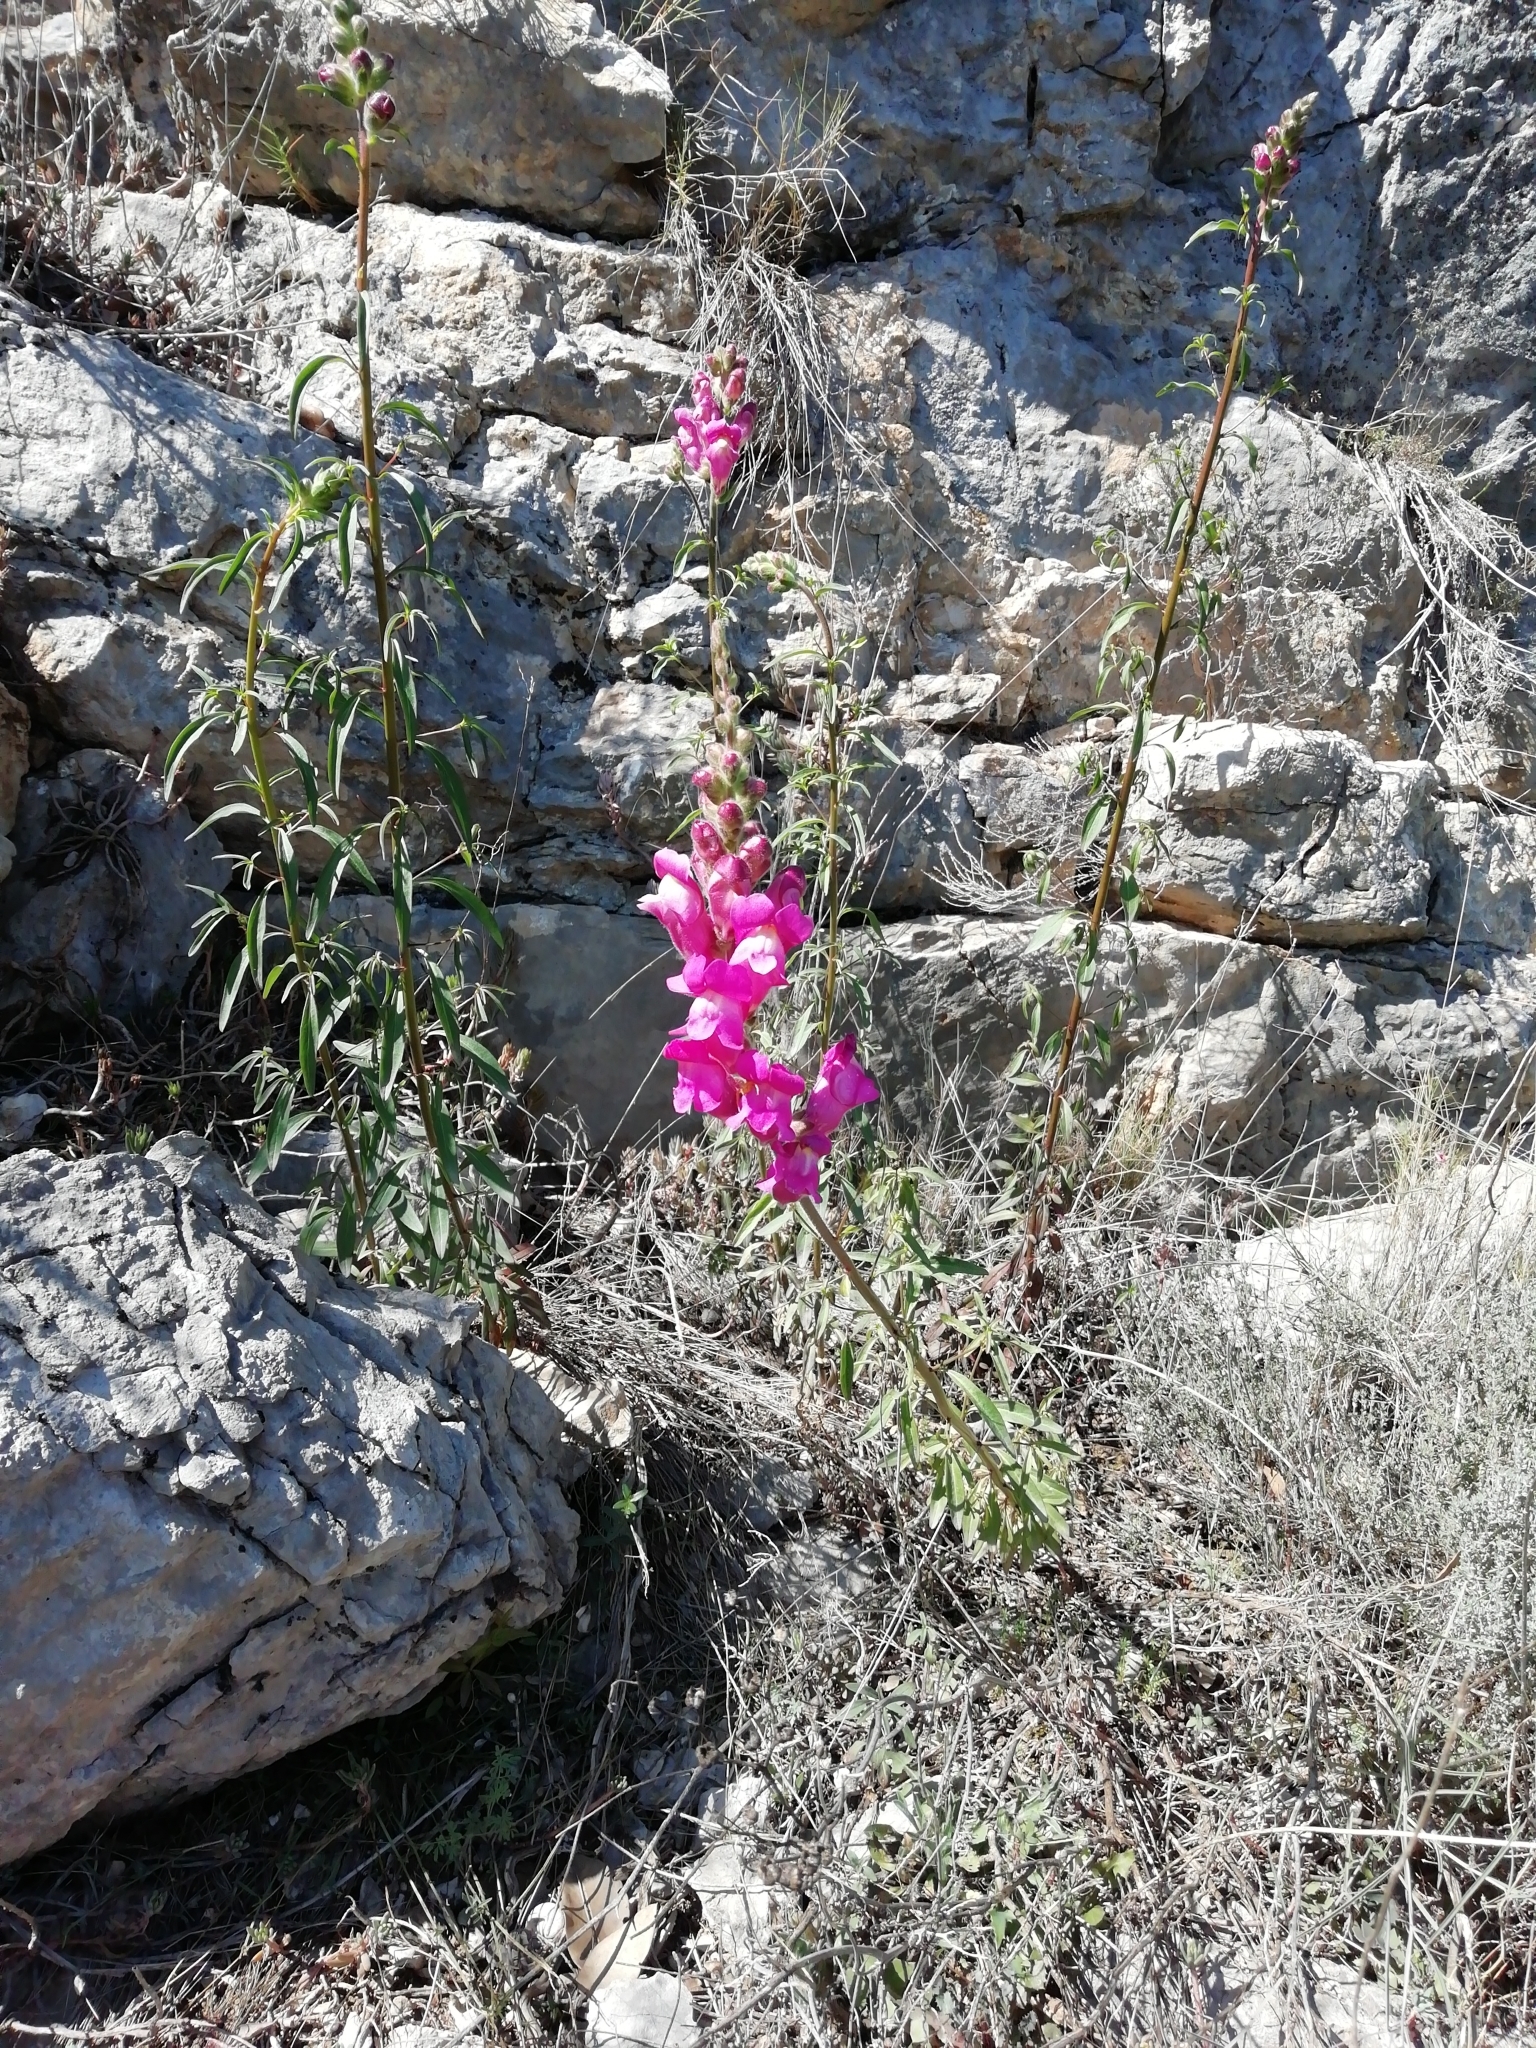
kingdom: Plantae
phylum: Tracheophyta
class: Magnoliopsida
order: Lamiales
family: Plantaginaceae
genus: Antirrhinum
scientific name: Antirrhinum majus
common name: Snapdragon
